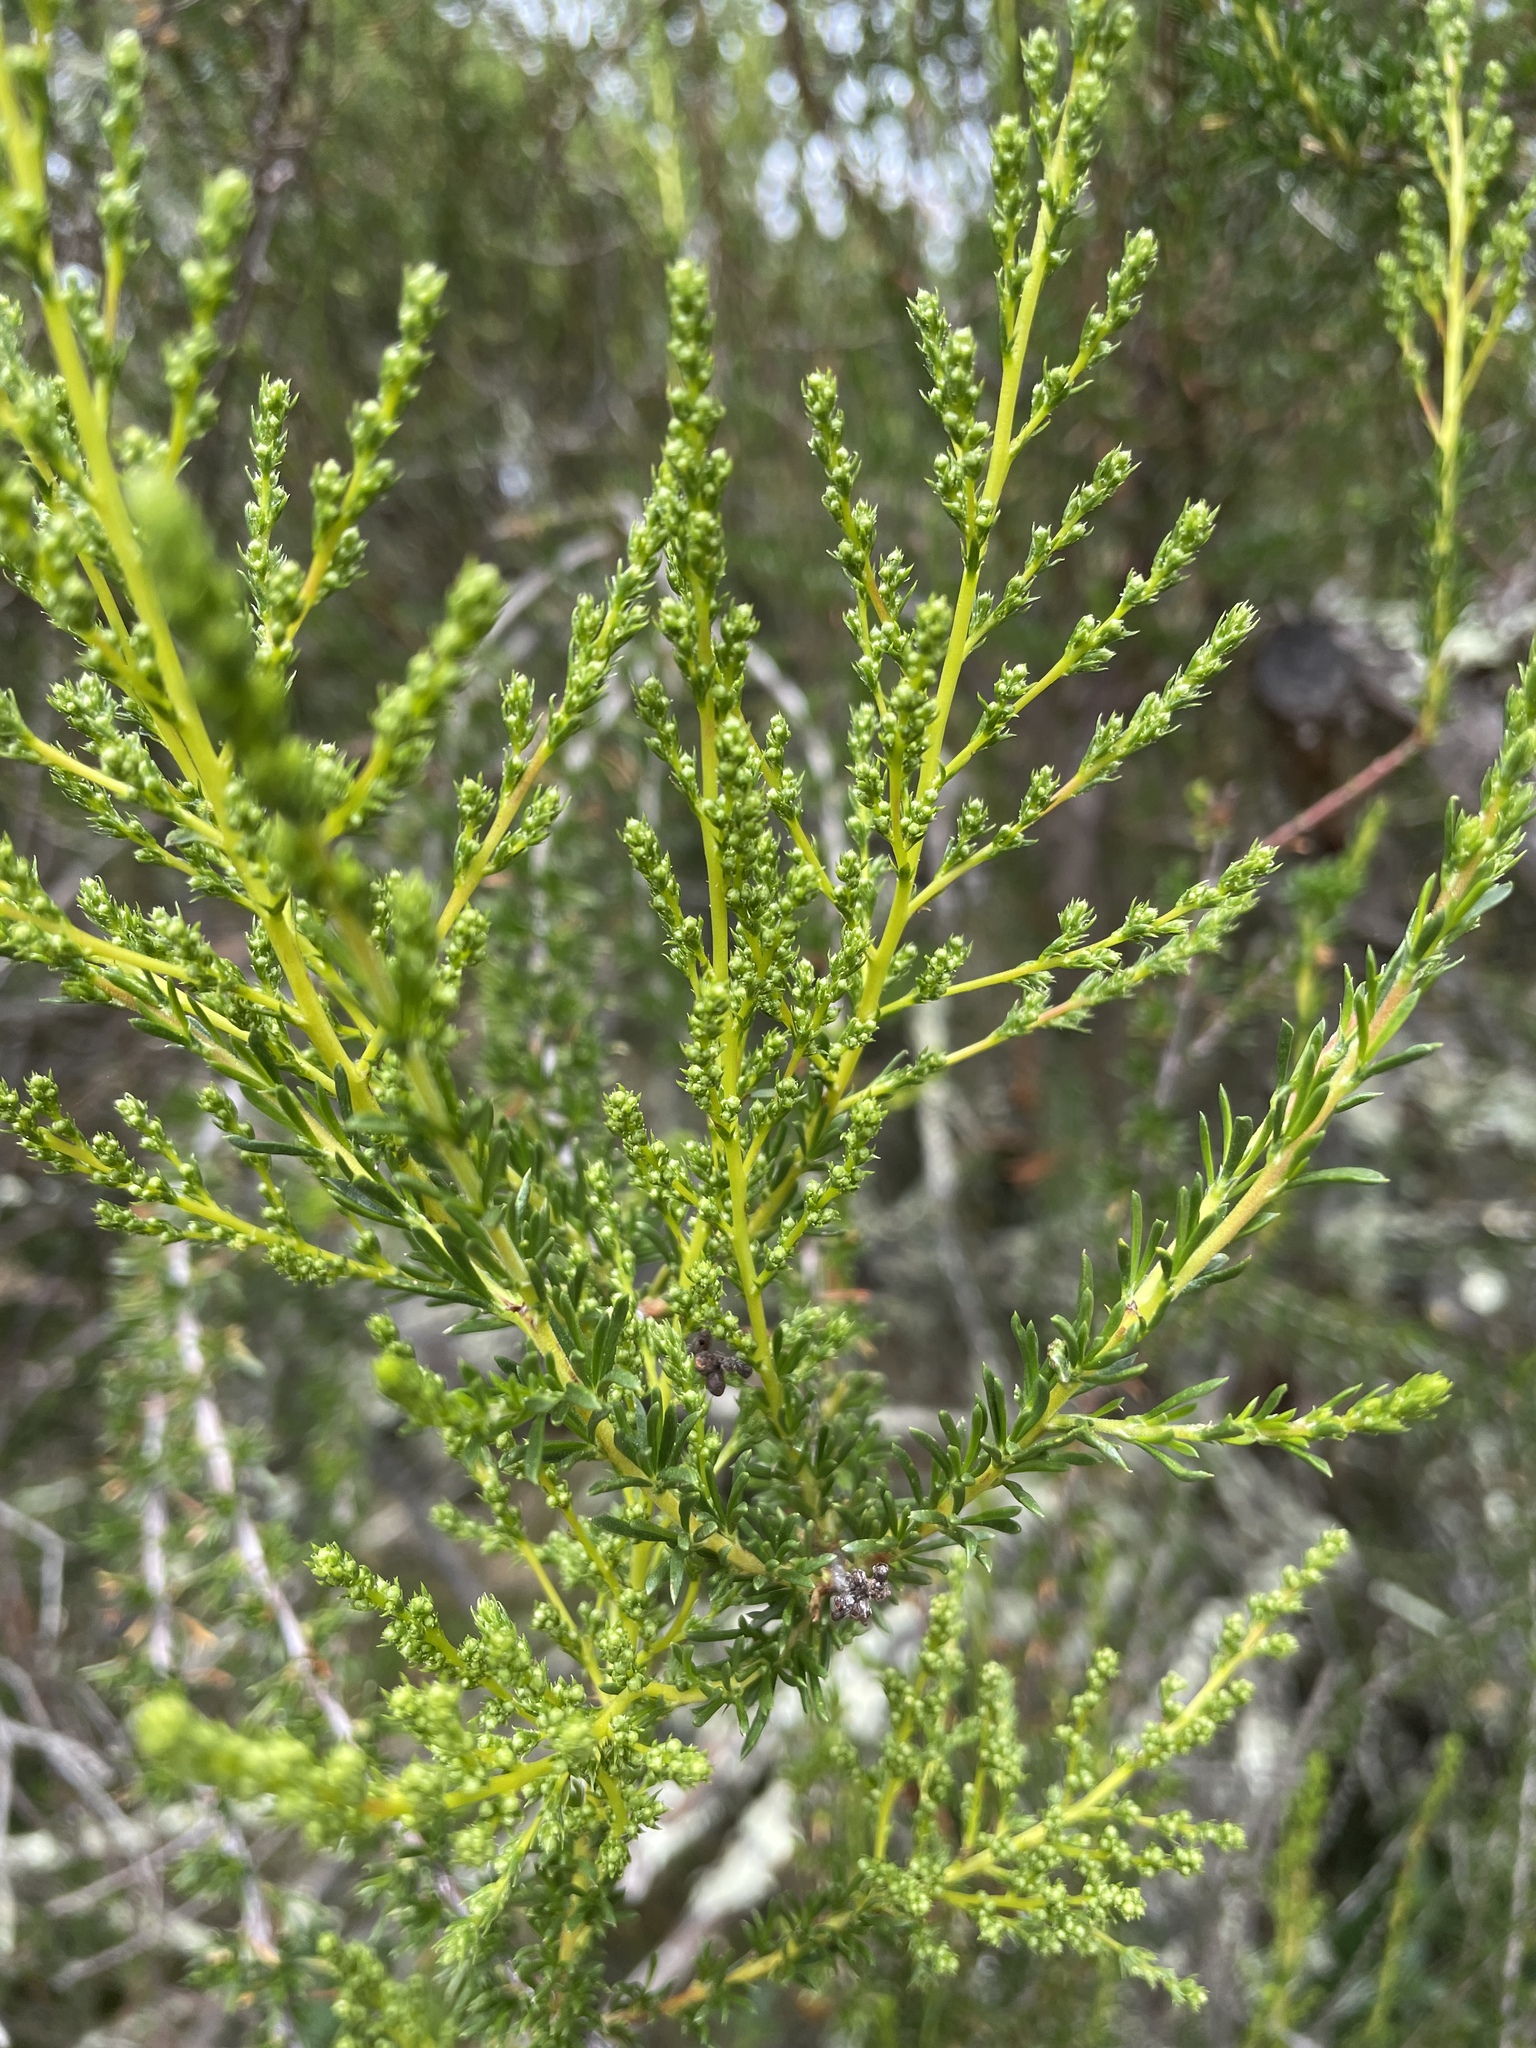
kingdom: Plantae
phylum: Tracheophyta
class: Magnoliopsida
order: Rosales
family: Rosaceae
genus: Adenostoma
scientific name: Adenostoma fasciculatum
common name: Chamise
